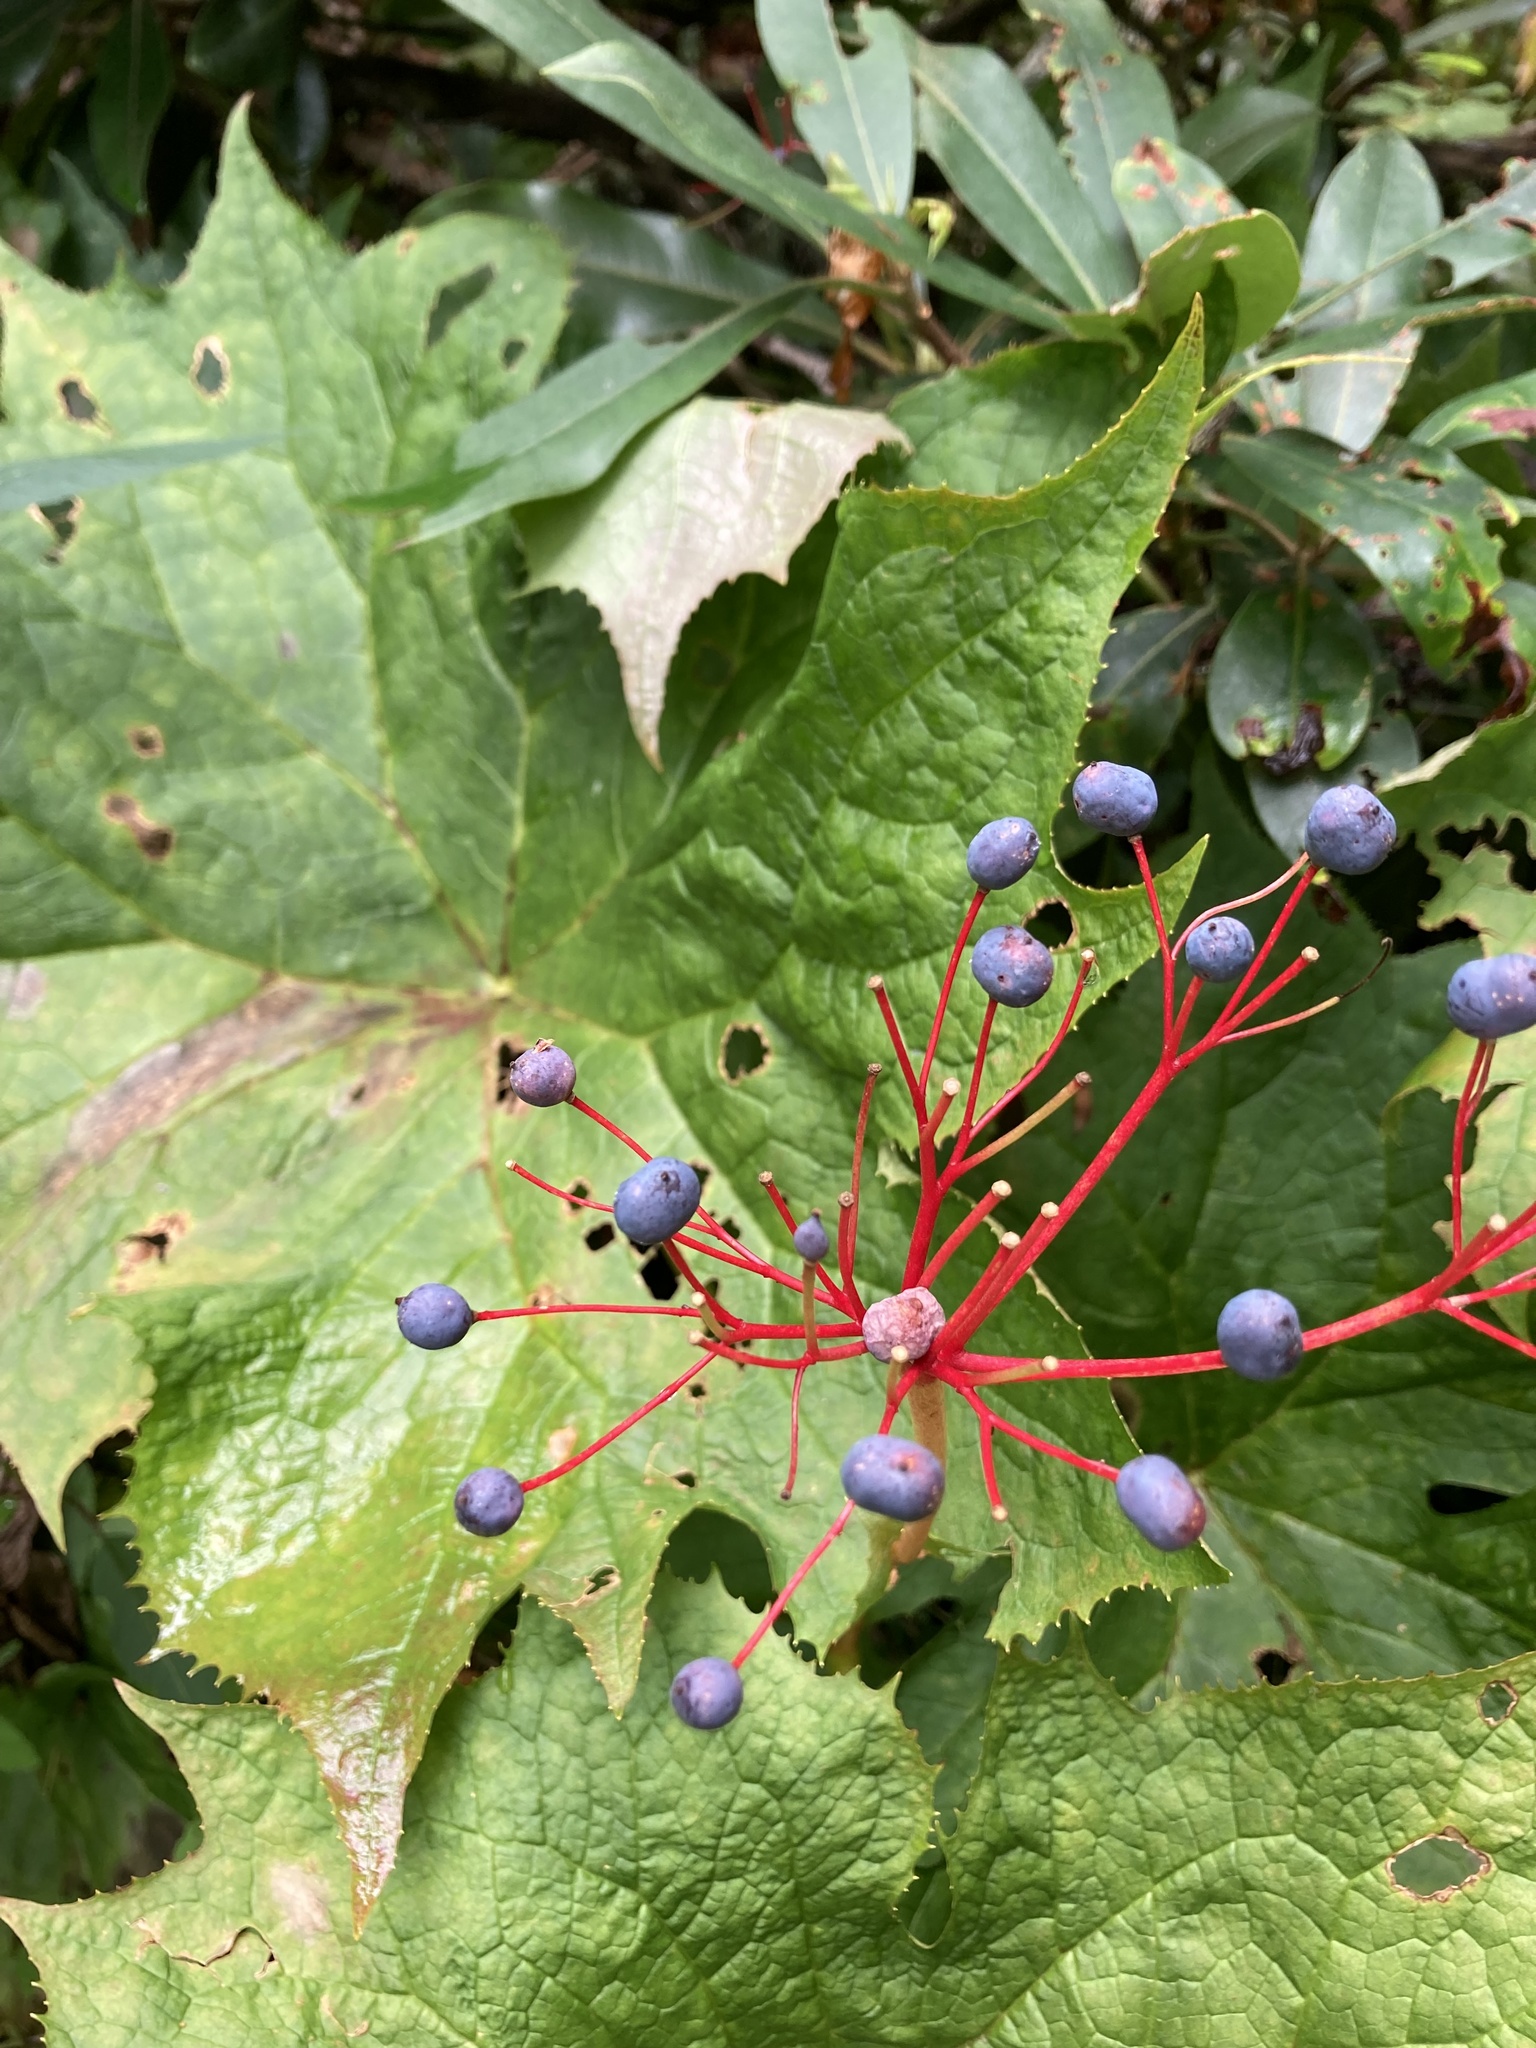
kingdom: Plantae
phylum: Tracheophyta
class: Magnoliopsida
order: Ranunculales
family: Berberidaceae
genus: Diphylleia
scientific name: Diphylleia cymosa
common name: Umbrella-leaf
